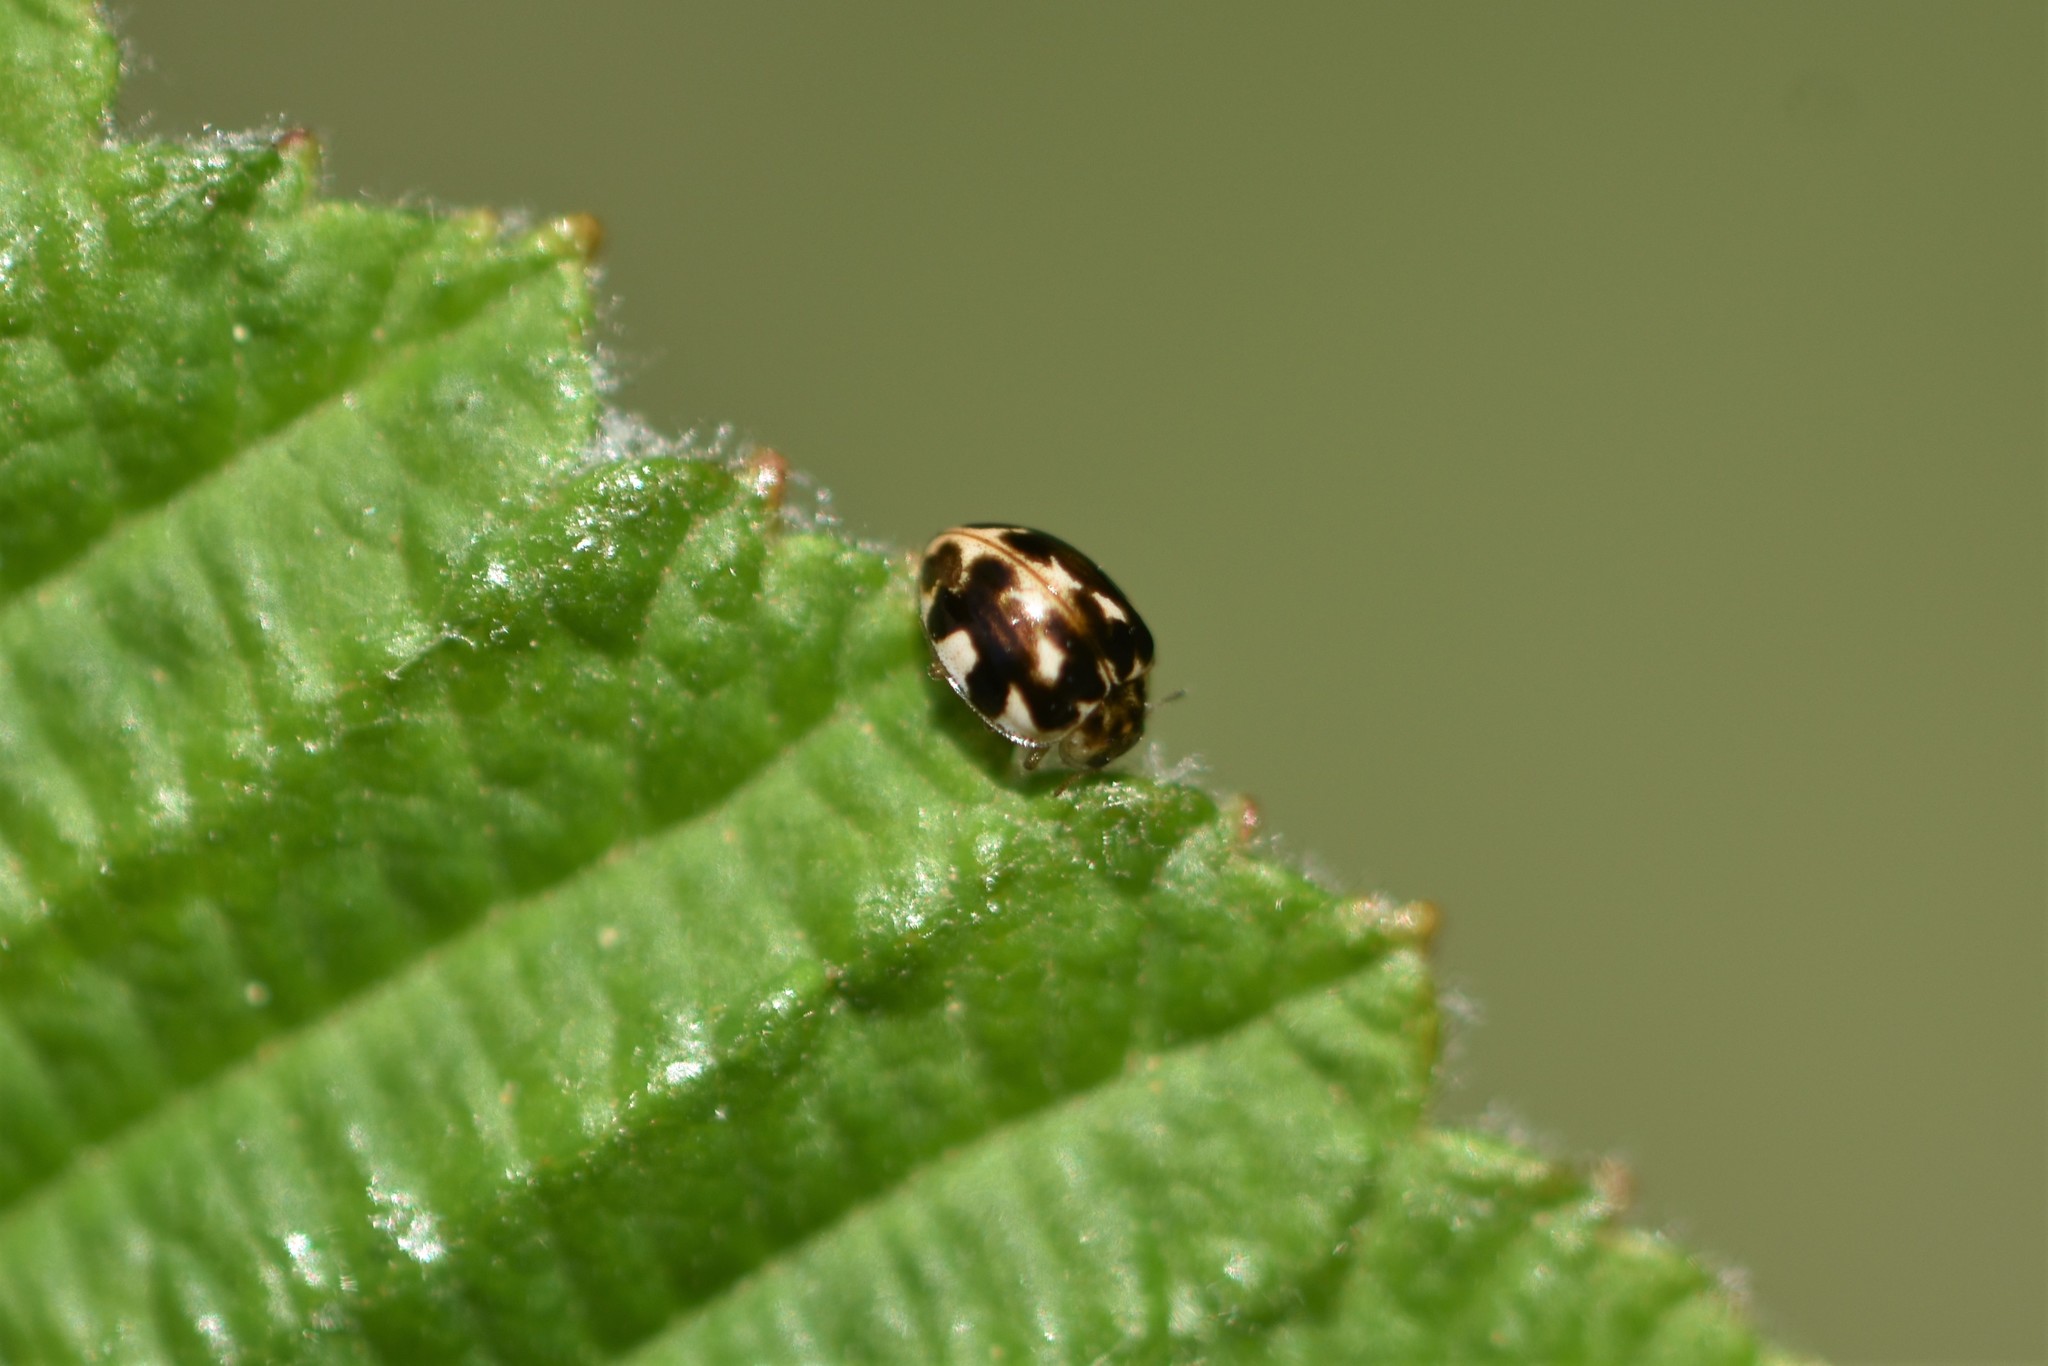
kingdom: Animalia
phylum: Arthropoda
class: Insecta
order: Coleoptera
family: Coccinellidae
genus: Psyllobora
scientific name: Psyllobora vigintimaculata
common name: Ladybird beetle
